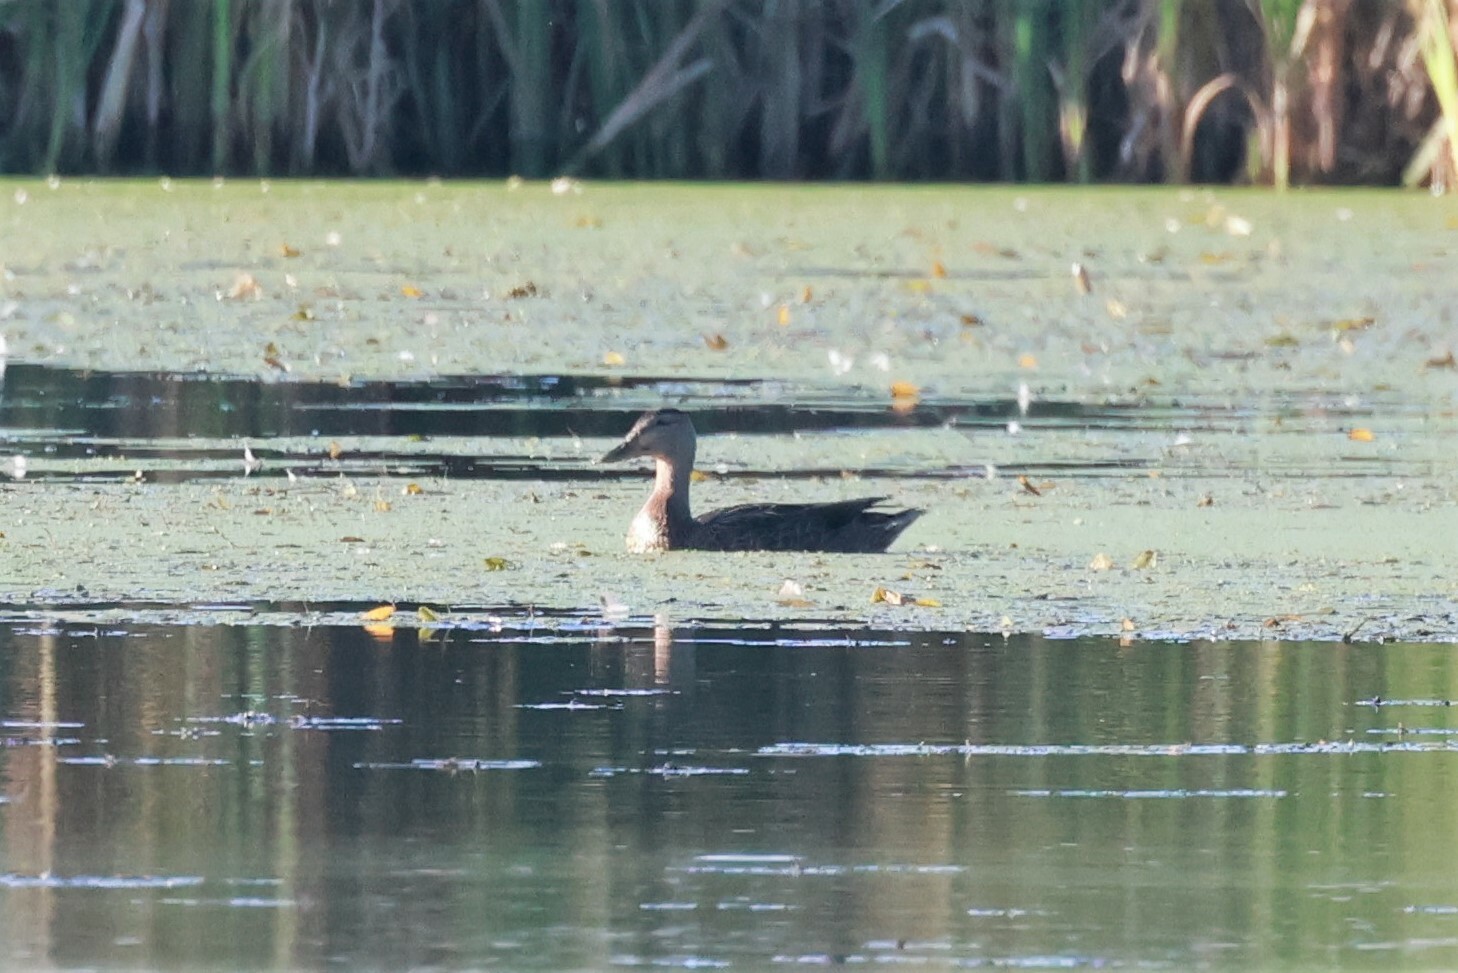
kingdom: Animalia
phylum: Chordata
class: Aves
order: Anseriformes
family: Anatidae
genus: Anas
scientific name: Anas platyrhynchos
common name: Mallard
